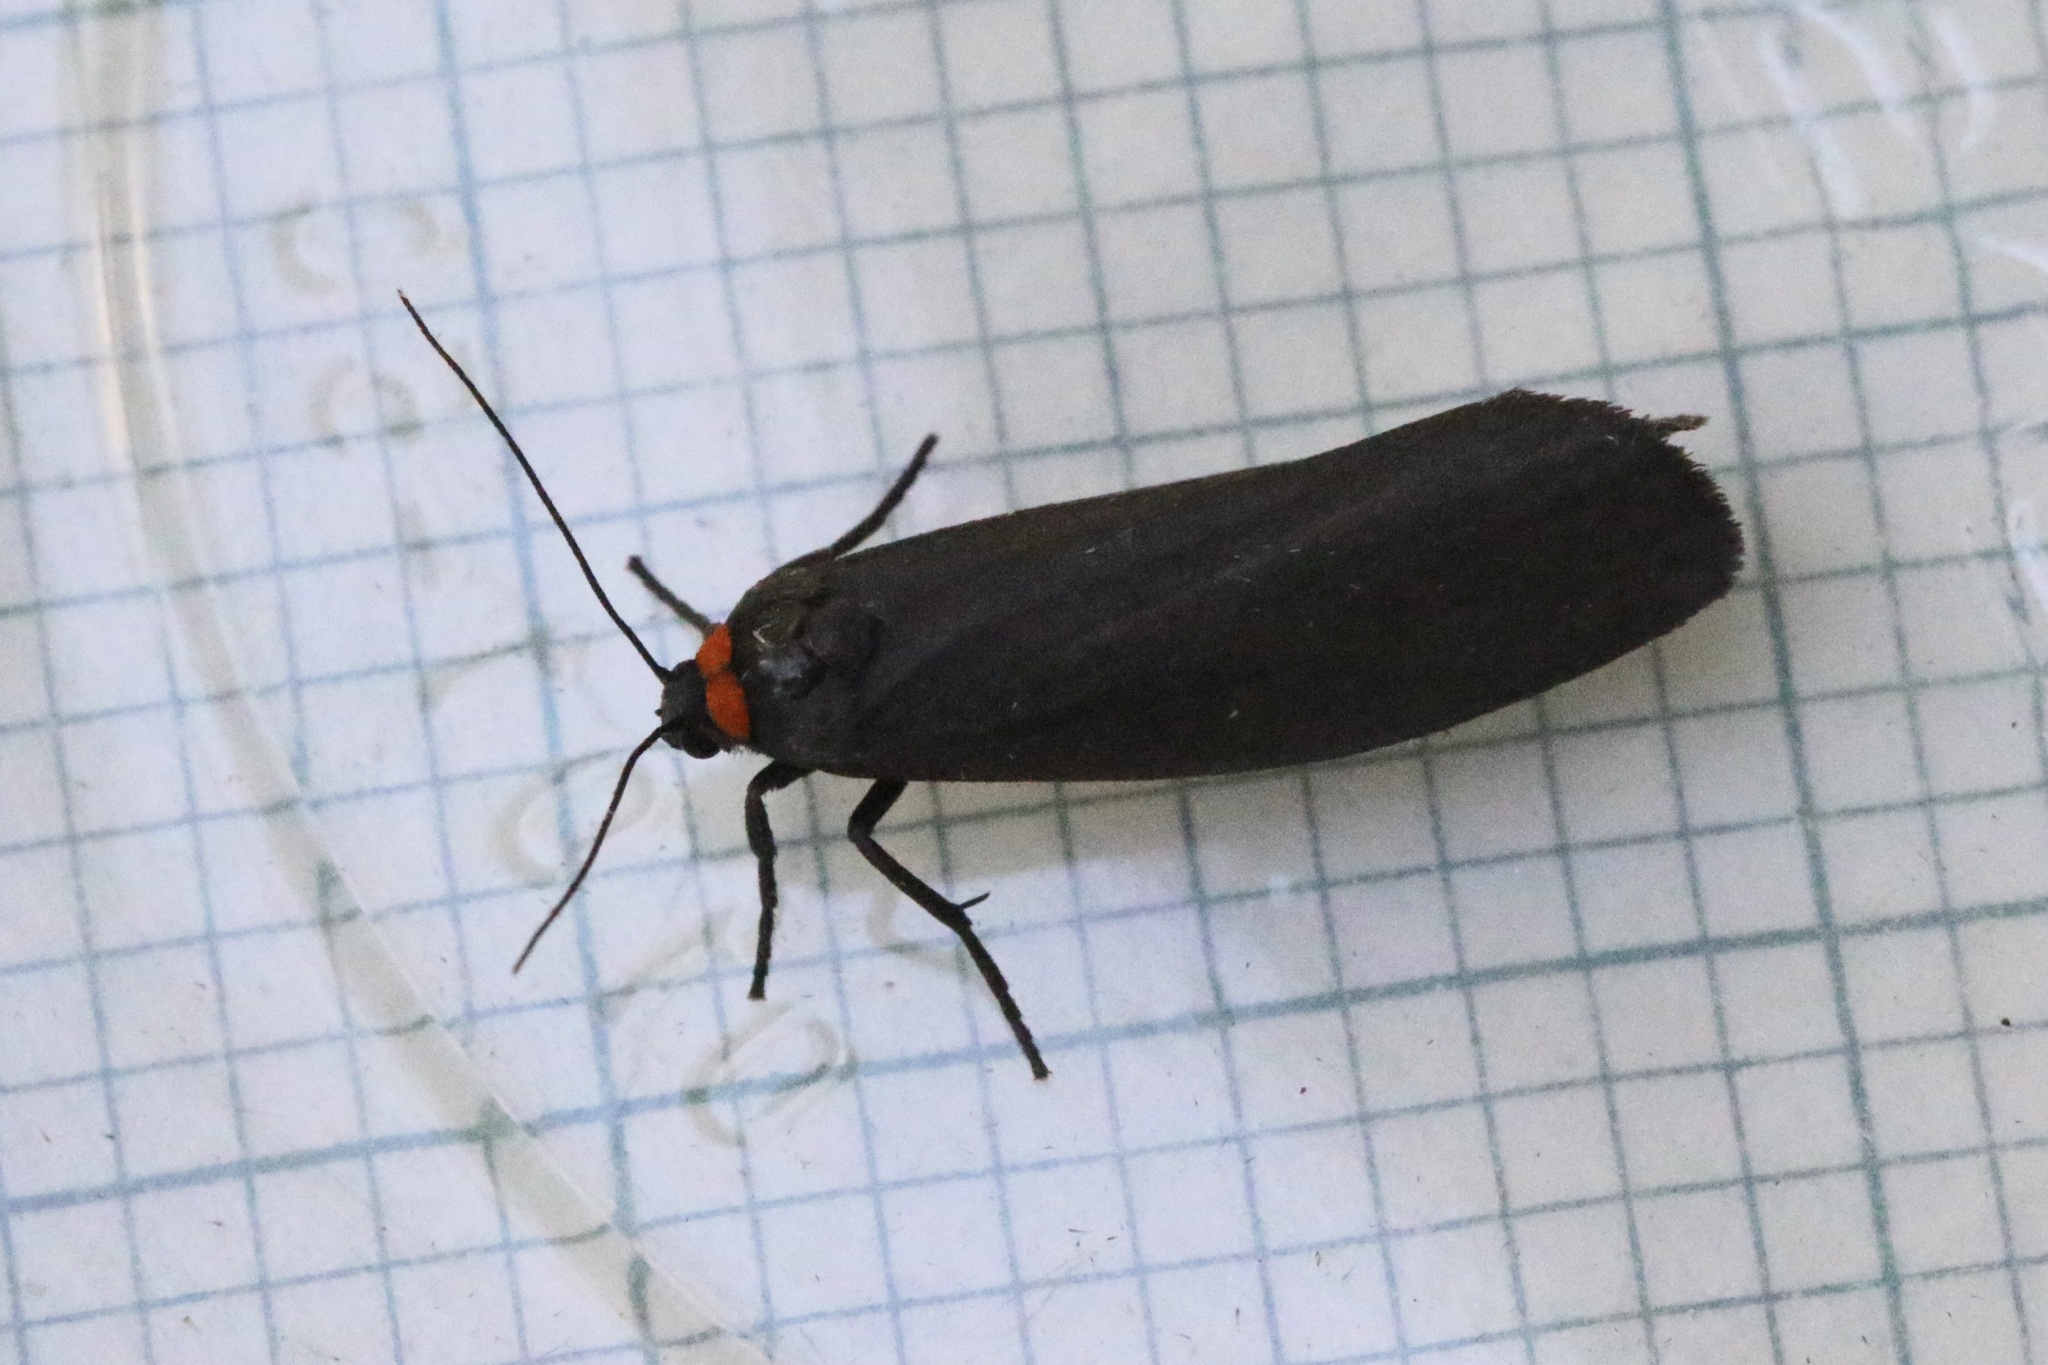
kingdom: Animalia
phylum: Arthropoda
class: Insecta
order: Lepidoptera
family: Erebidae
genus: Atolmis
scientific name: Atolmis rubricollis
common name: Red-necked footman
